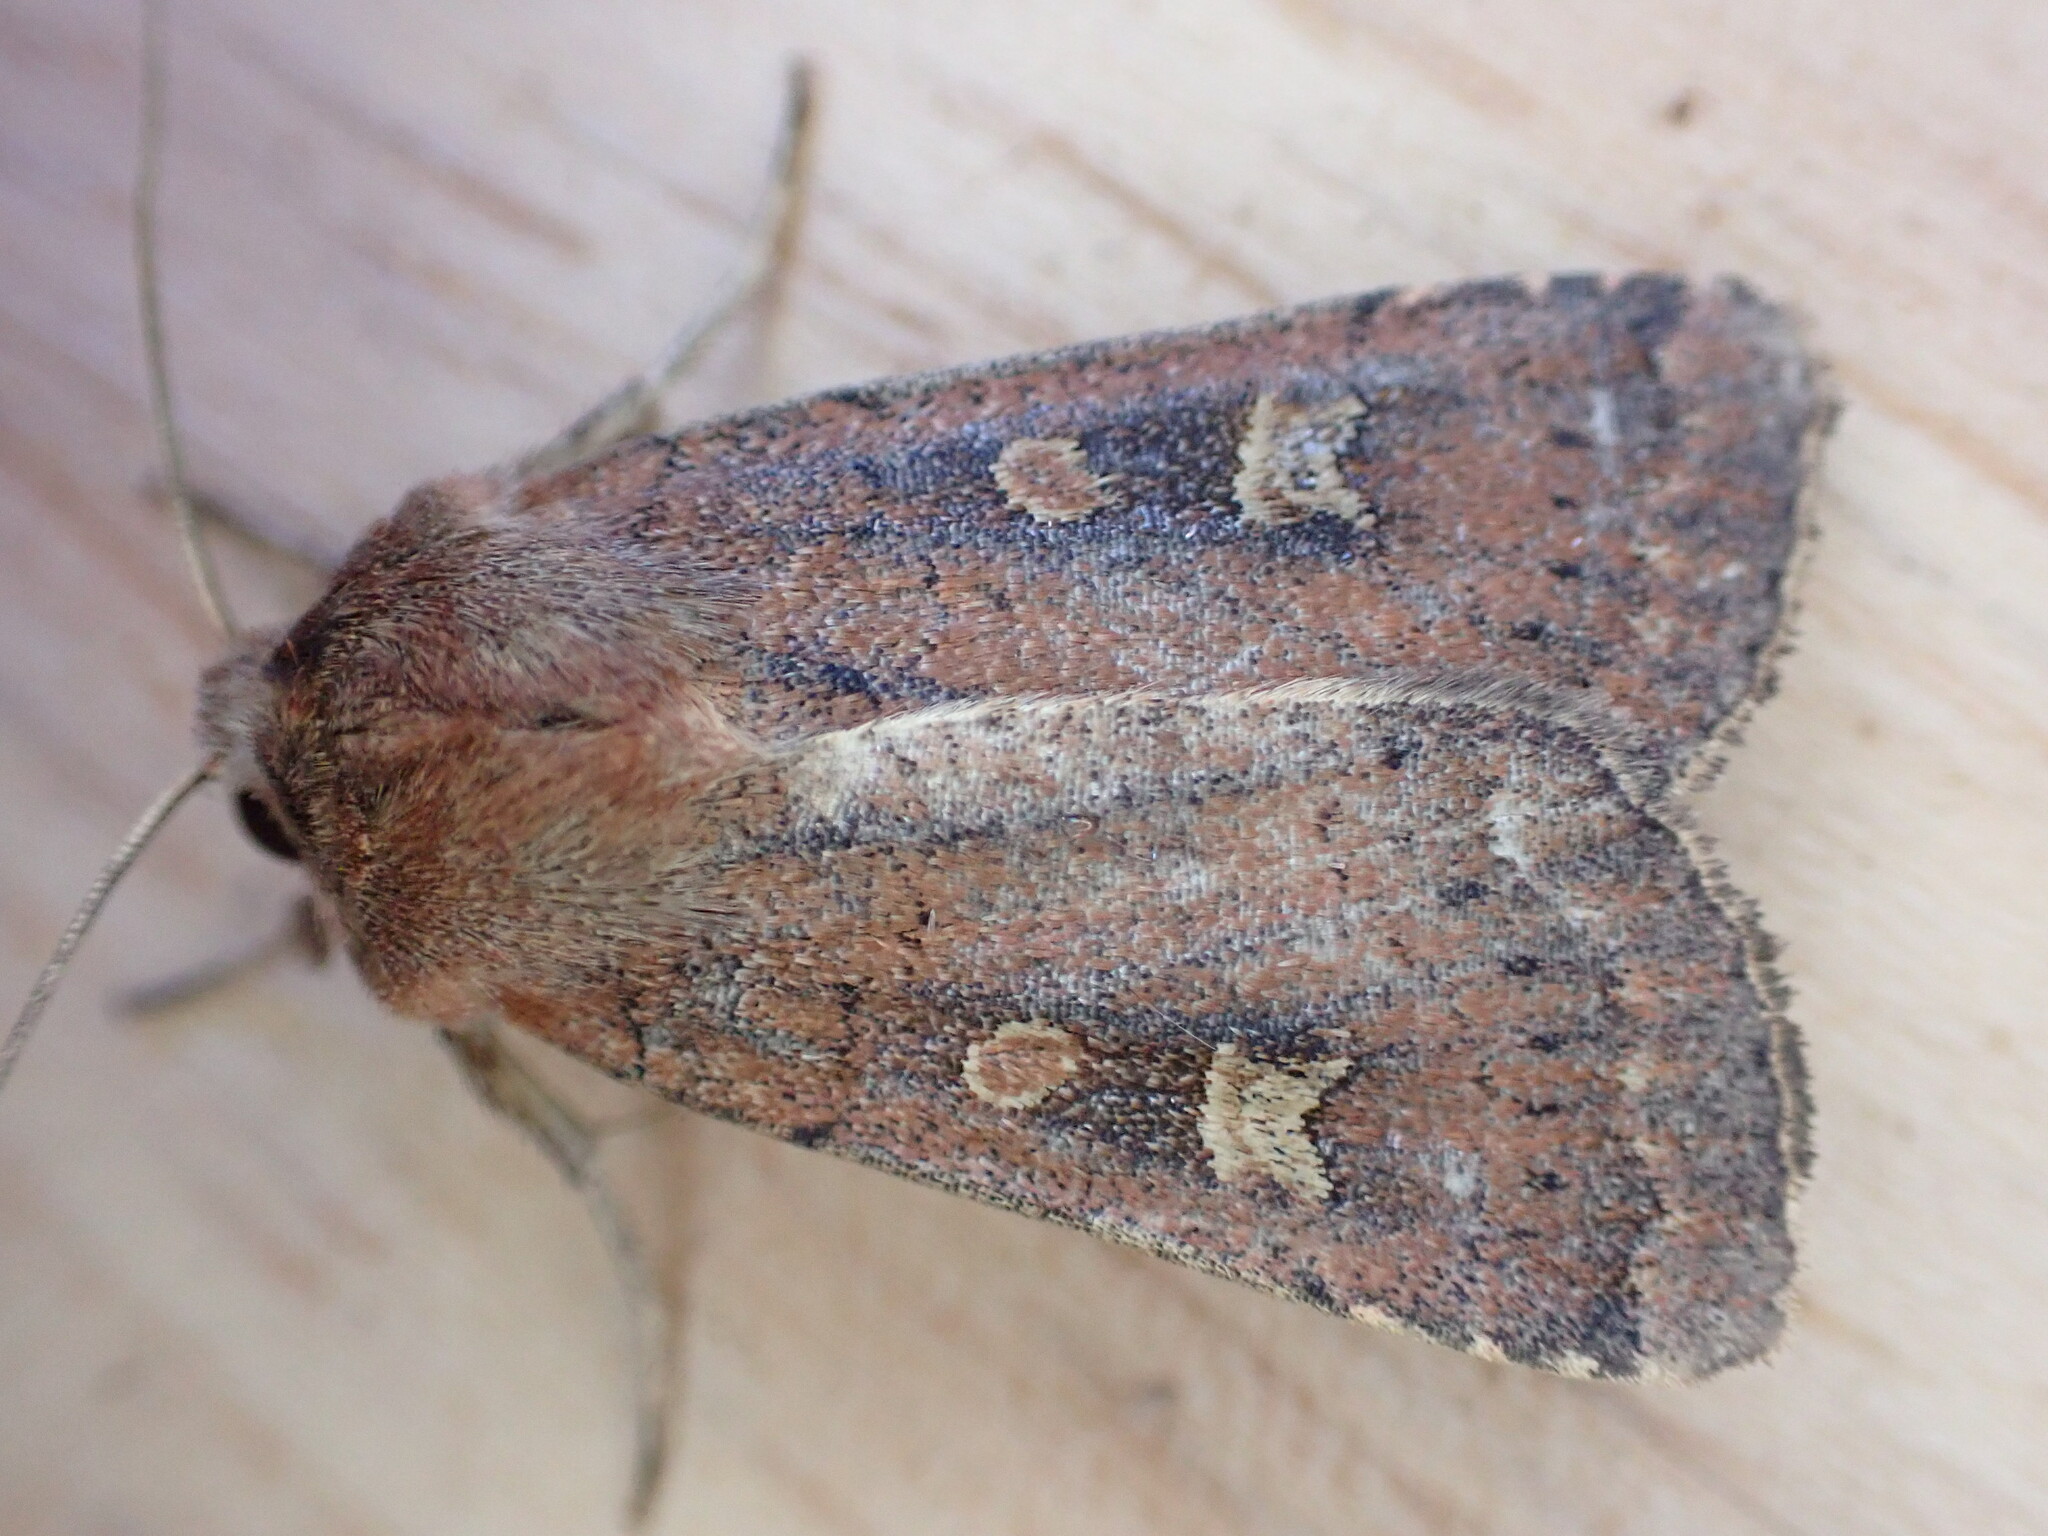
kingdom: Animalia
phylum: Arthropoda
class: Insecta
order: Lepidoptera
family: Noctuidae
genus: Xestia
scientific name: Xestia xanthographa
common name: Square-spot rustic
